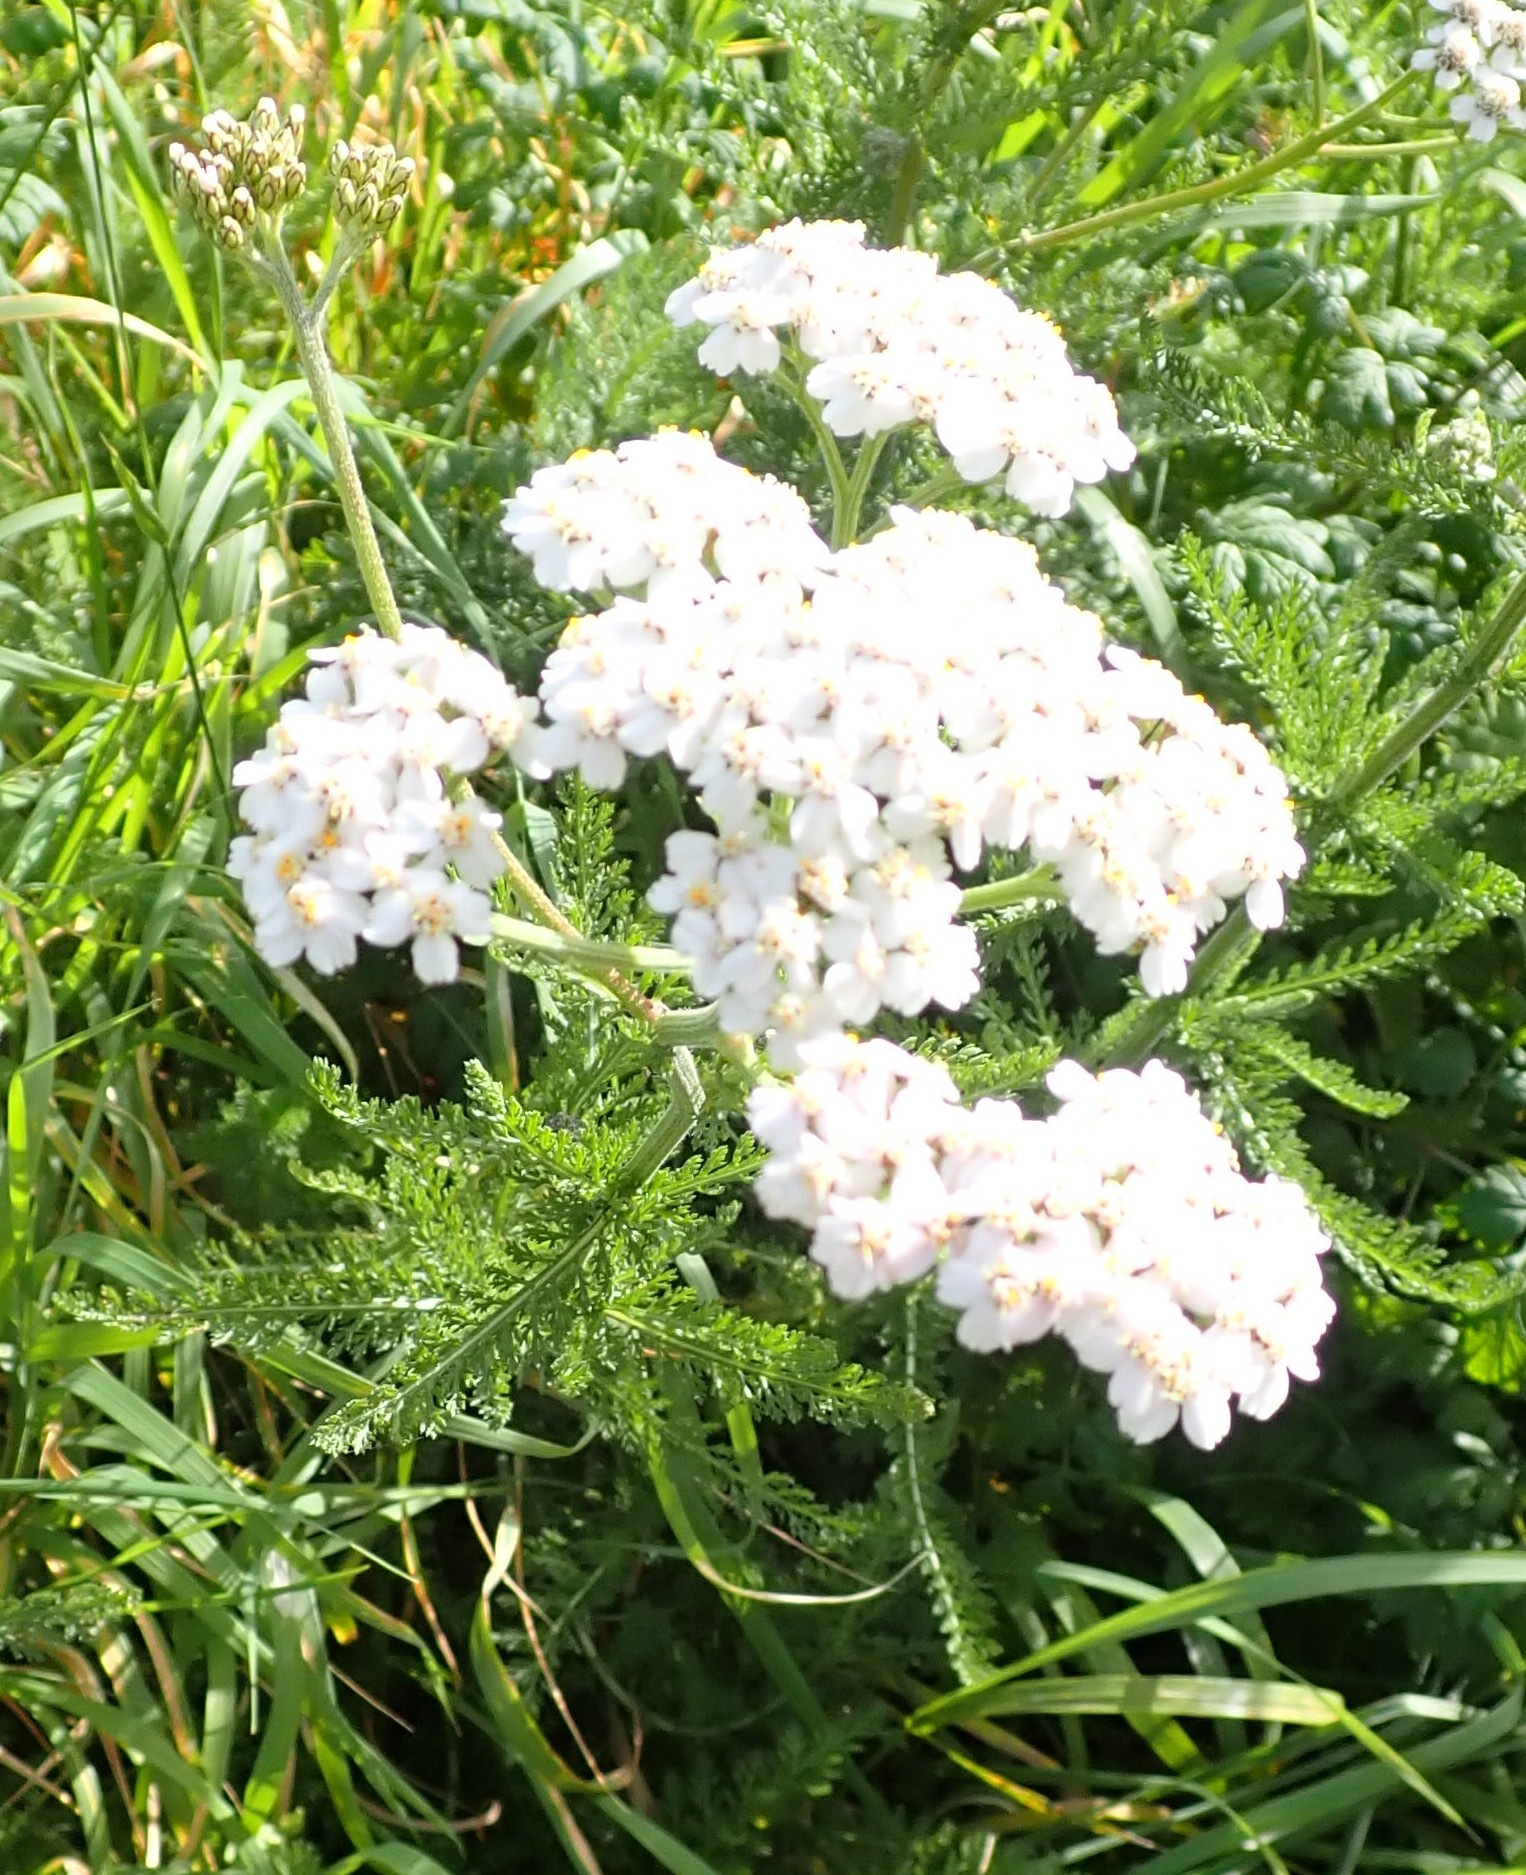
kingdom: Plantae
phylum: Tracheophyta
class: Magnoliopsida
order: Asterales
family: Asteraceae
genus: Achillea
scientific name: Achillea millefolium
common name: Yarrow
